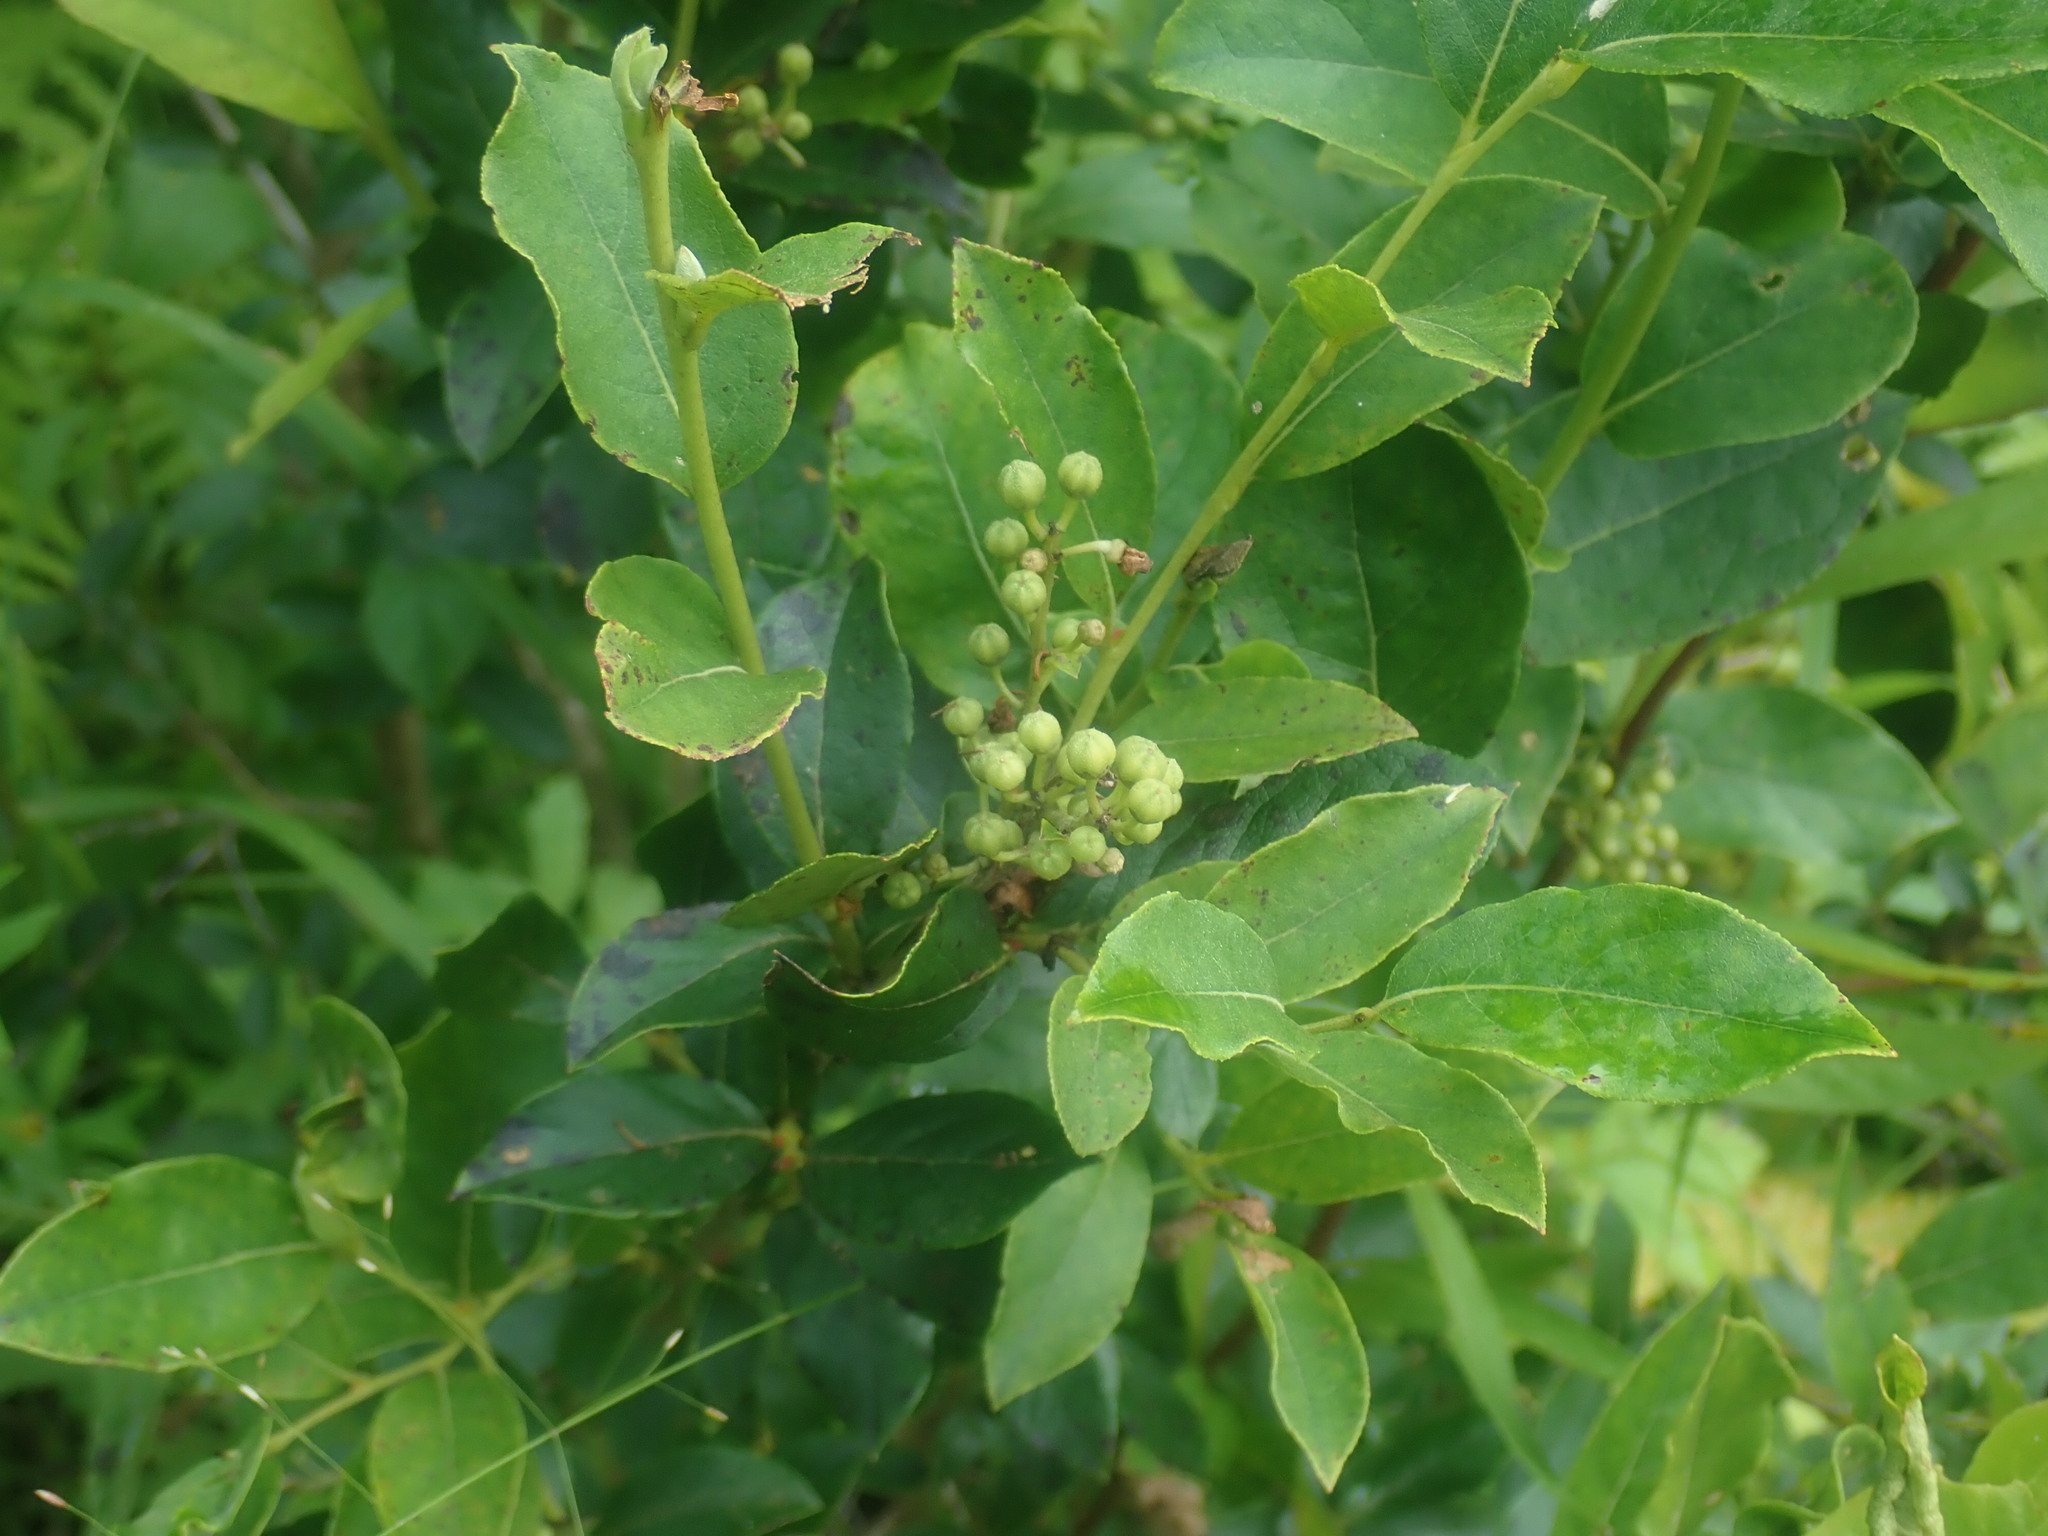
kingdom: Plantae
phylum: Tracheophyta
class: Magnoliopsida
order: Ericales
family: Ericaceae
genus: Lyonia
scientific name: Lyonia ligustrina
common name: Maleberry
